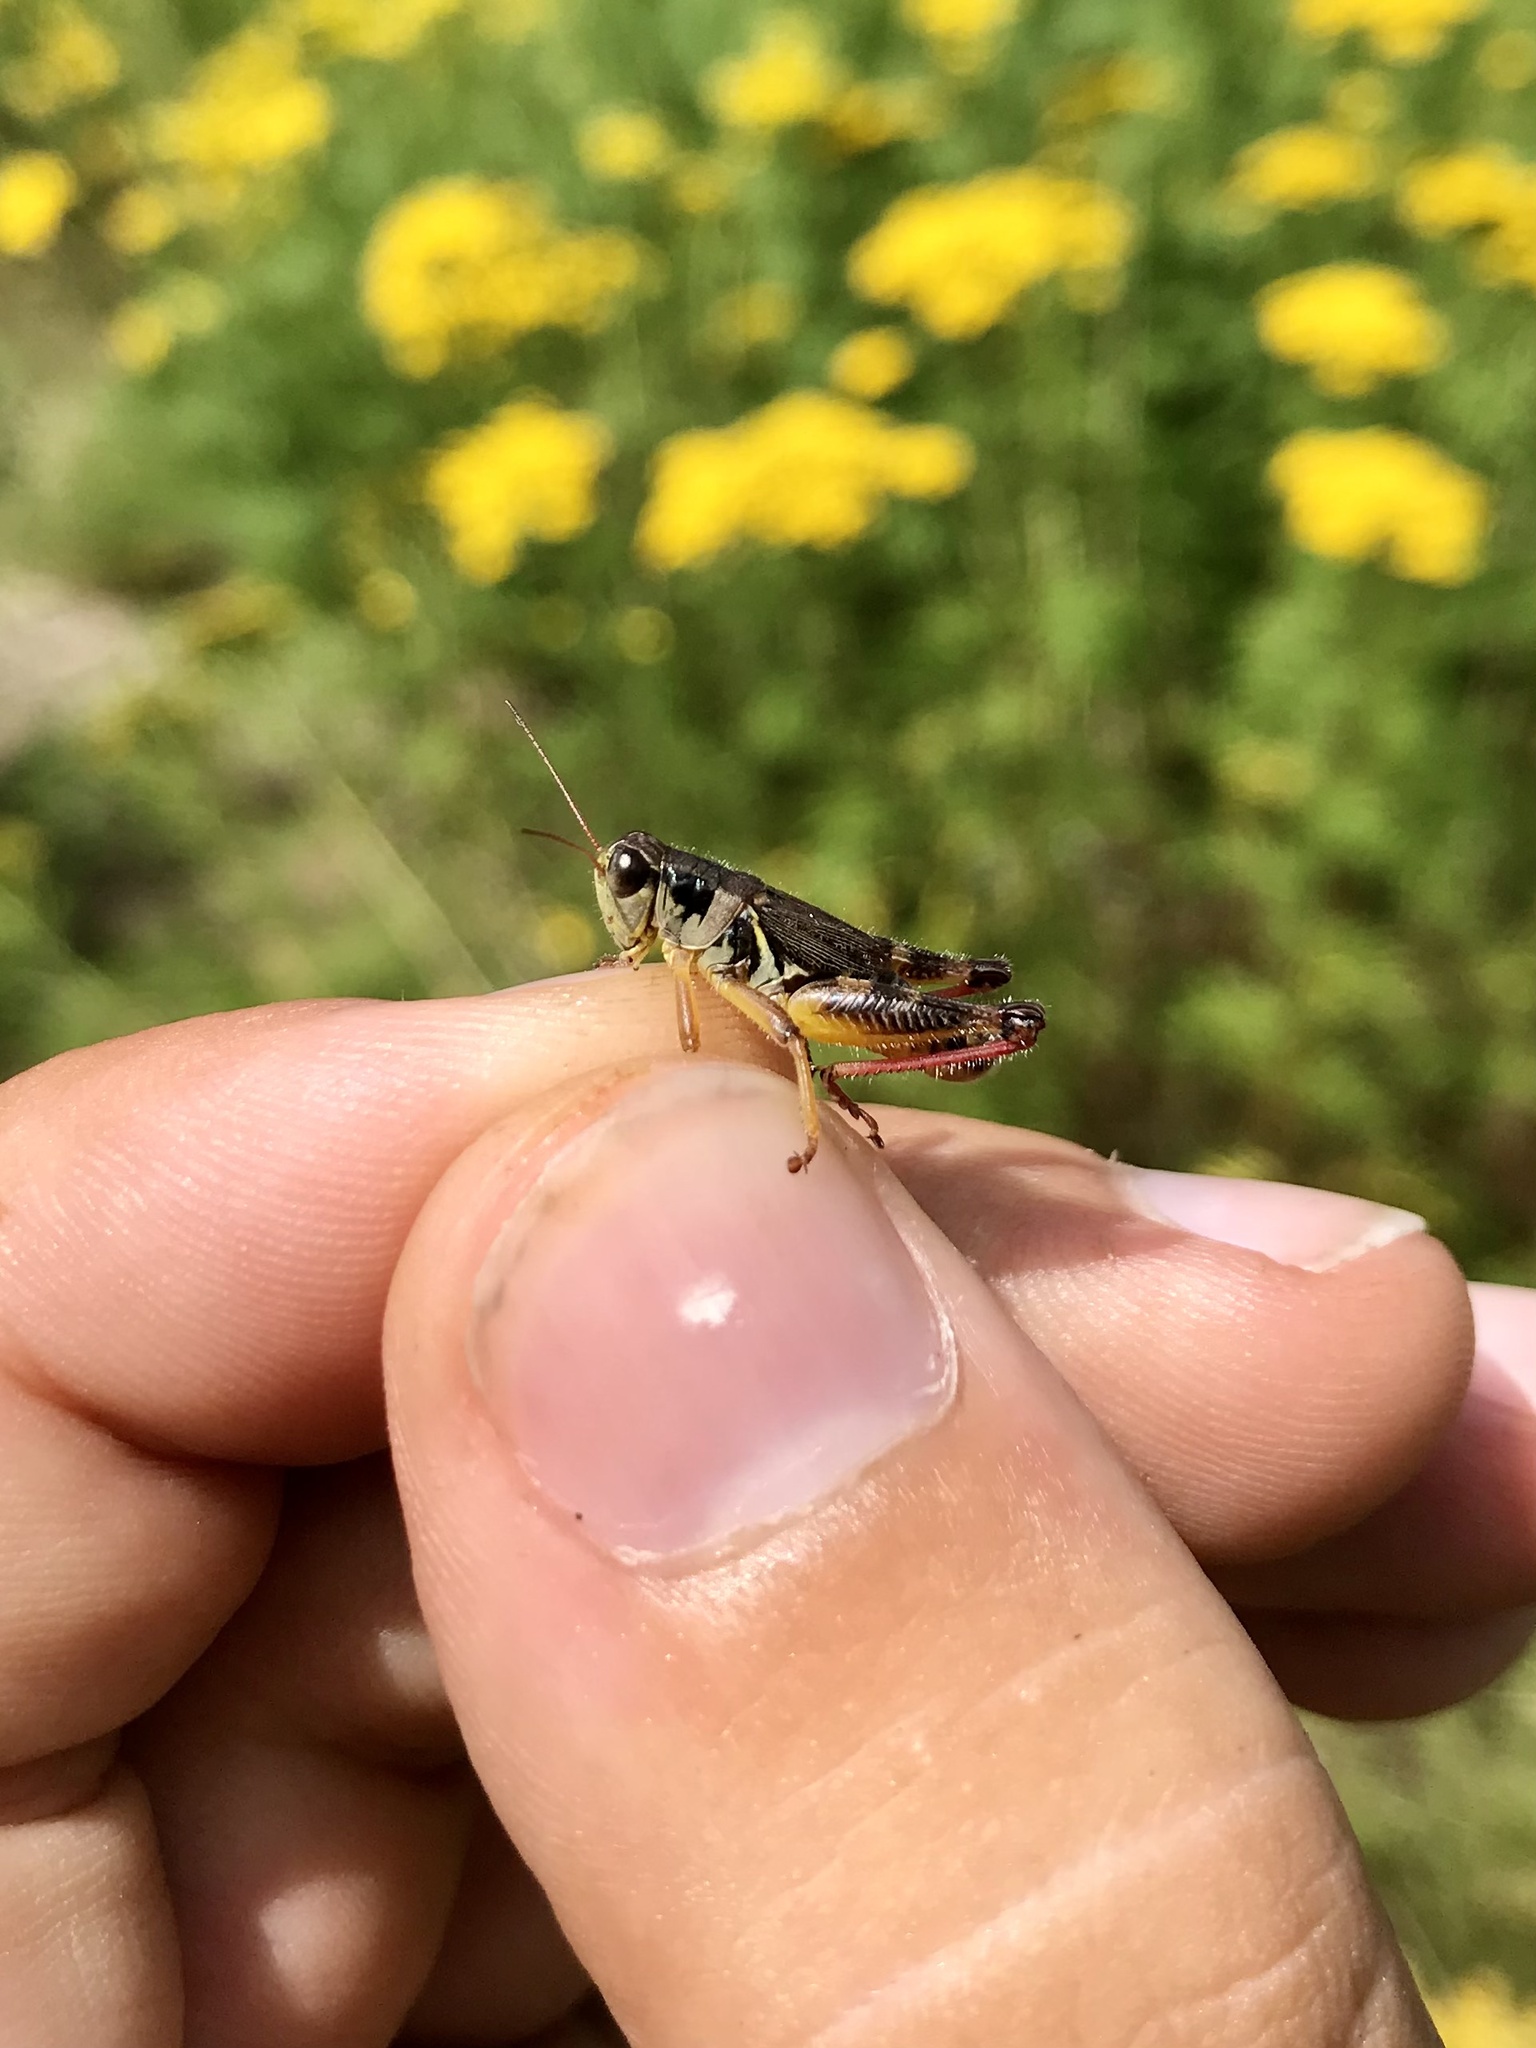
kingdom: Animalia
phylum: Arthropoda
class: Insecta
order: Orthoptera
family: Acrididae
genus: Melanoplus
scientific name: Melanoplus dawsoni
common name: Dawson grasshopper
